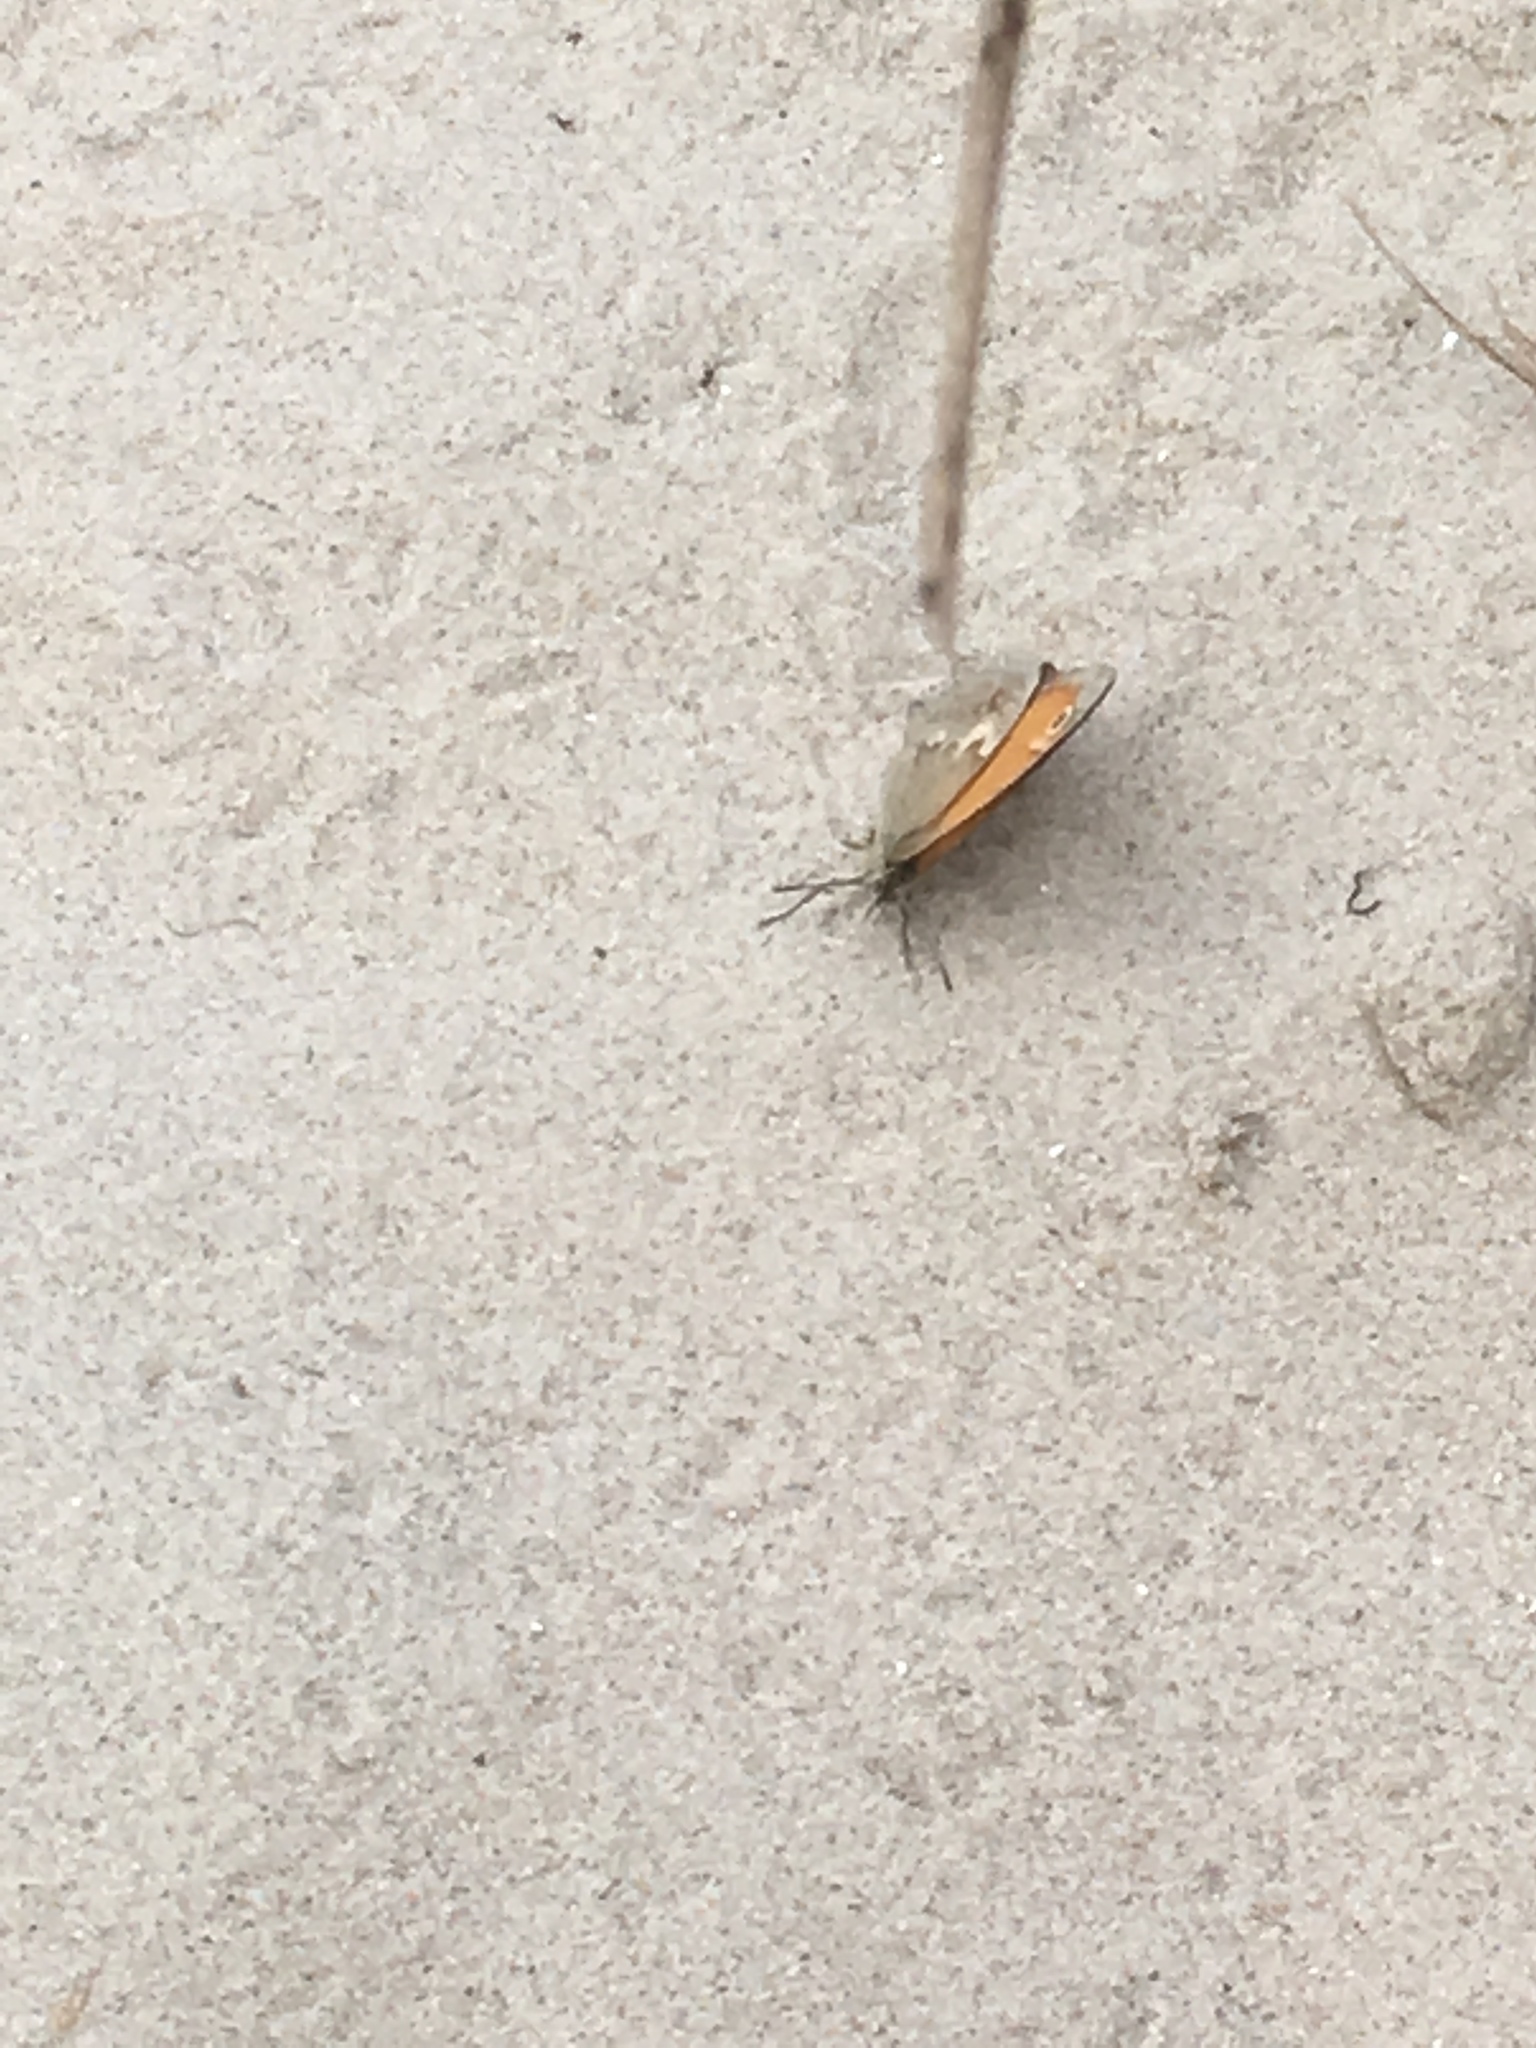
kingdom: Animalia
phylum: Arthropoda
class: Insecta
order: Lepidoptera
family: Nymphalidae
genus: Coenonympha
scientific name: Coenonympha pamphilus
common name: Small heath
